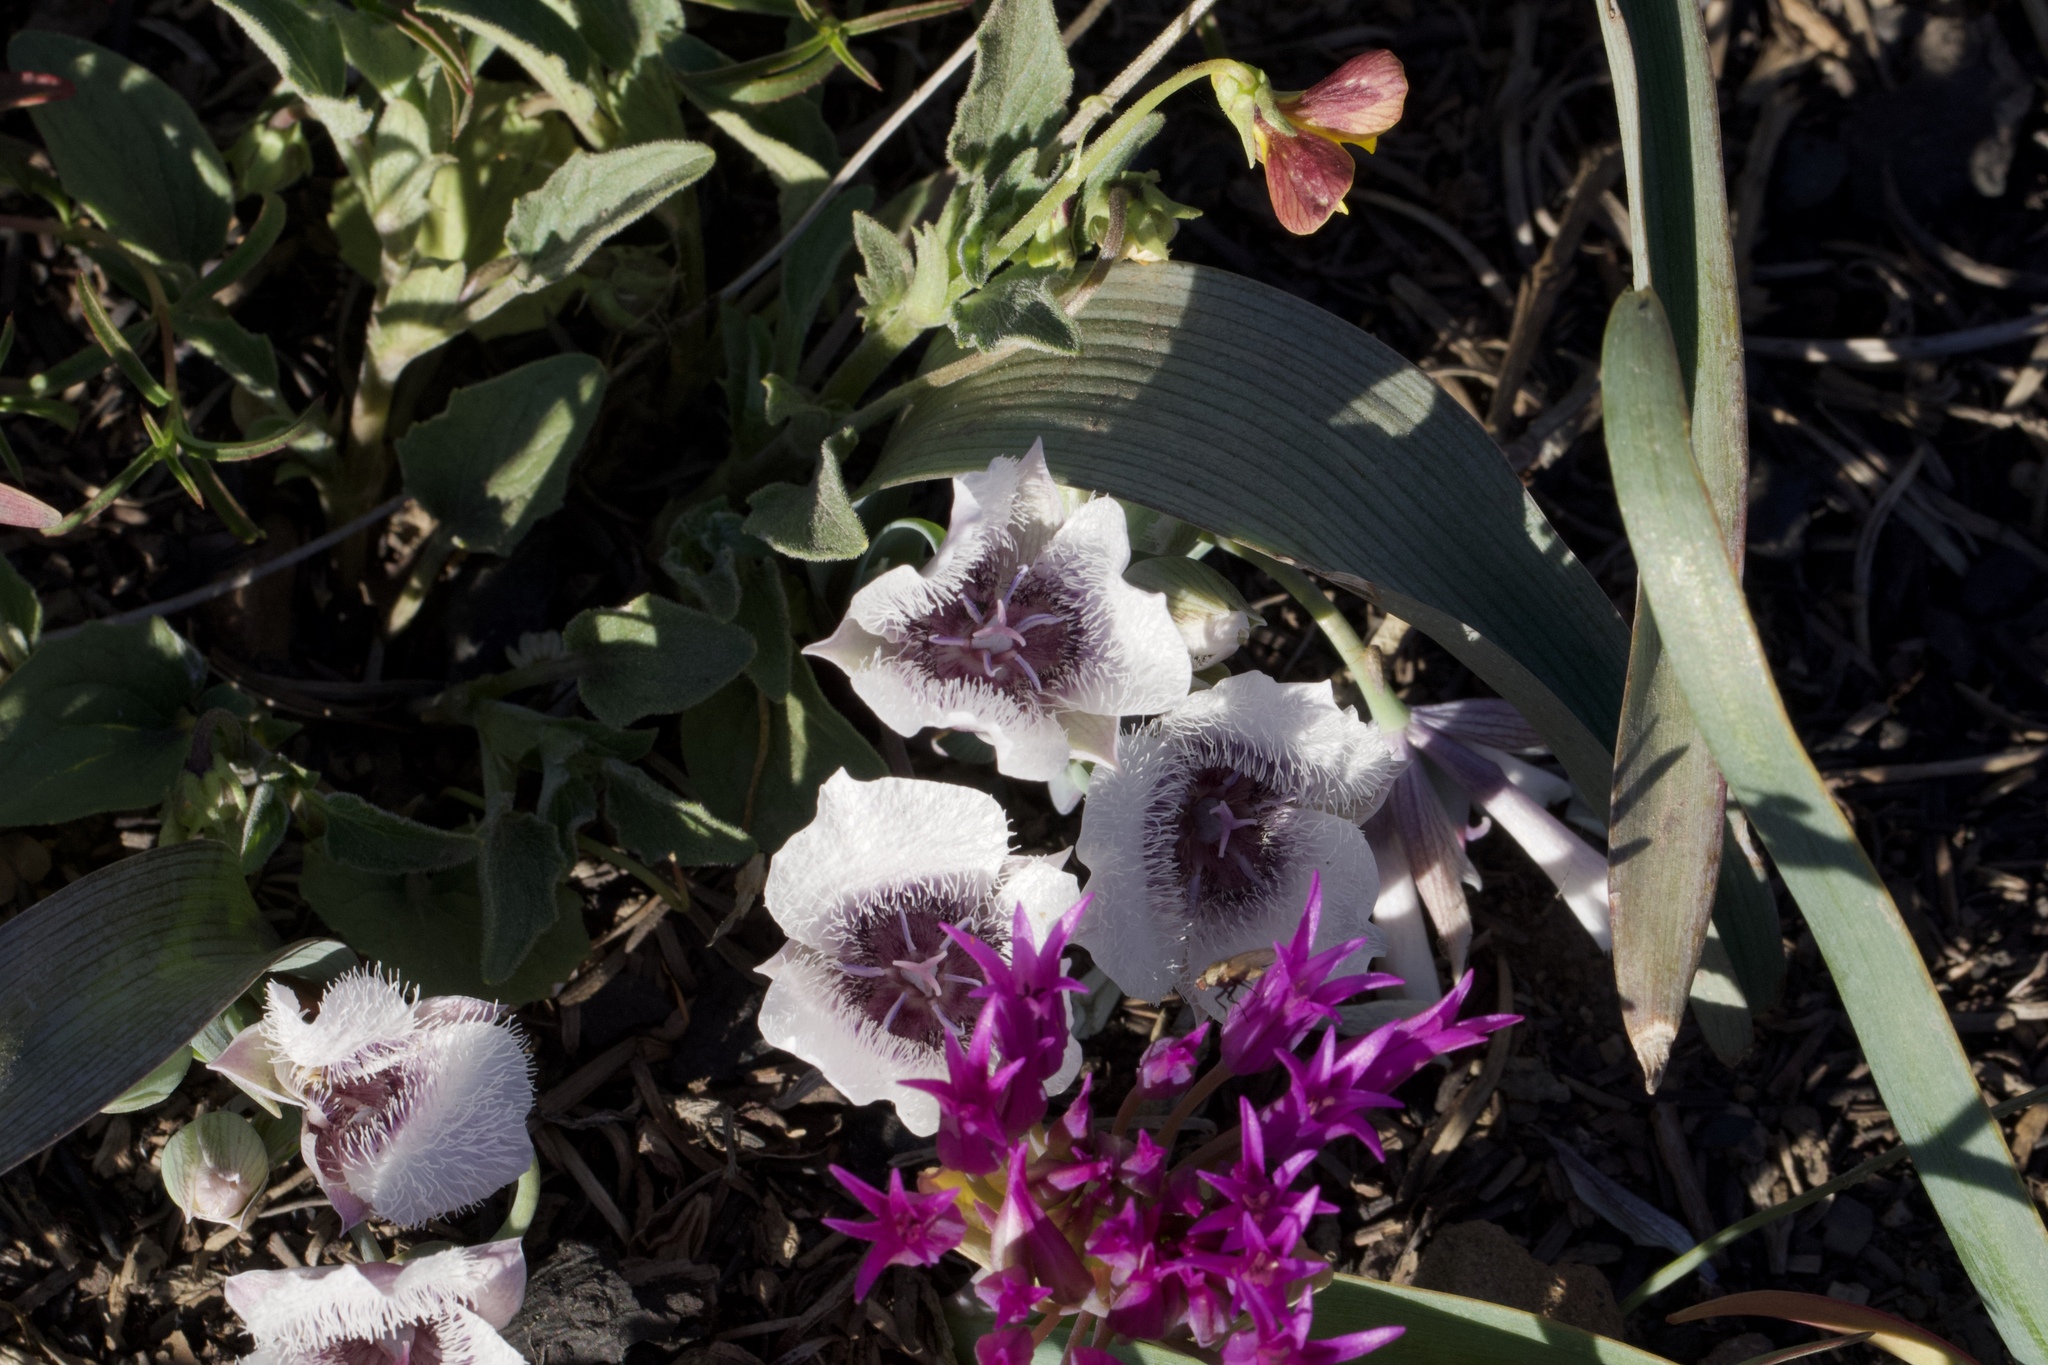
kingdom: Plantae
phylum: Tracheophyta
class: Liliopsida
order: Liliales
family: Liliaceae
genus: Calochortus
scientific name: Calochortus tolmiei
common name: Pussy-ears
